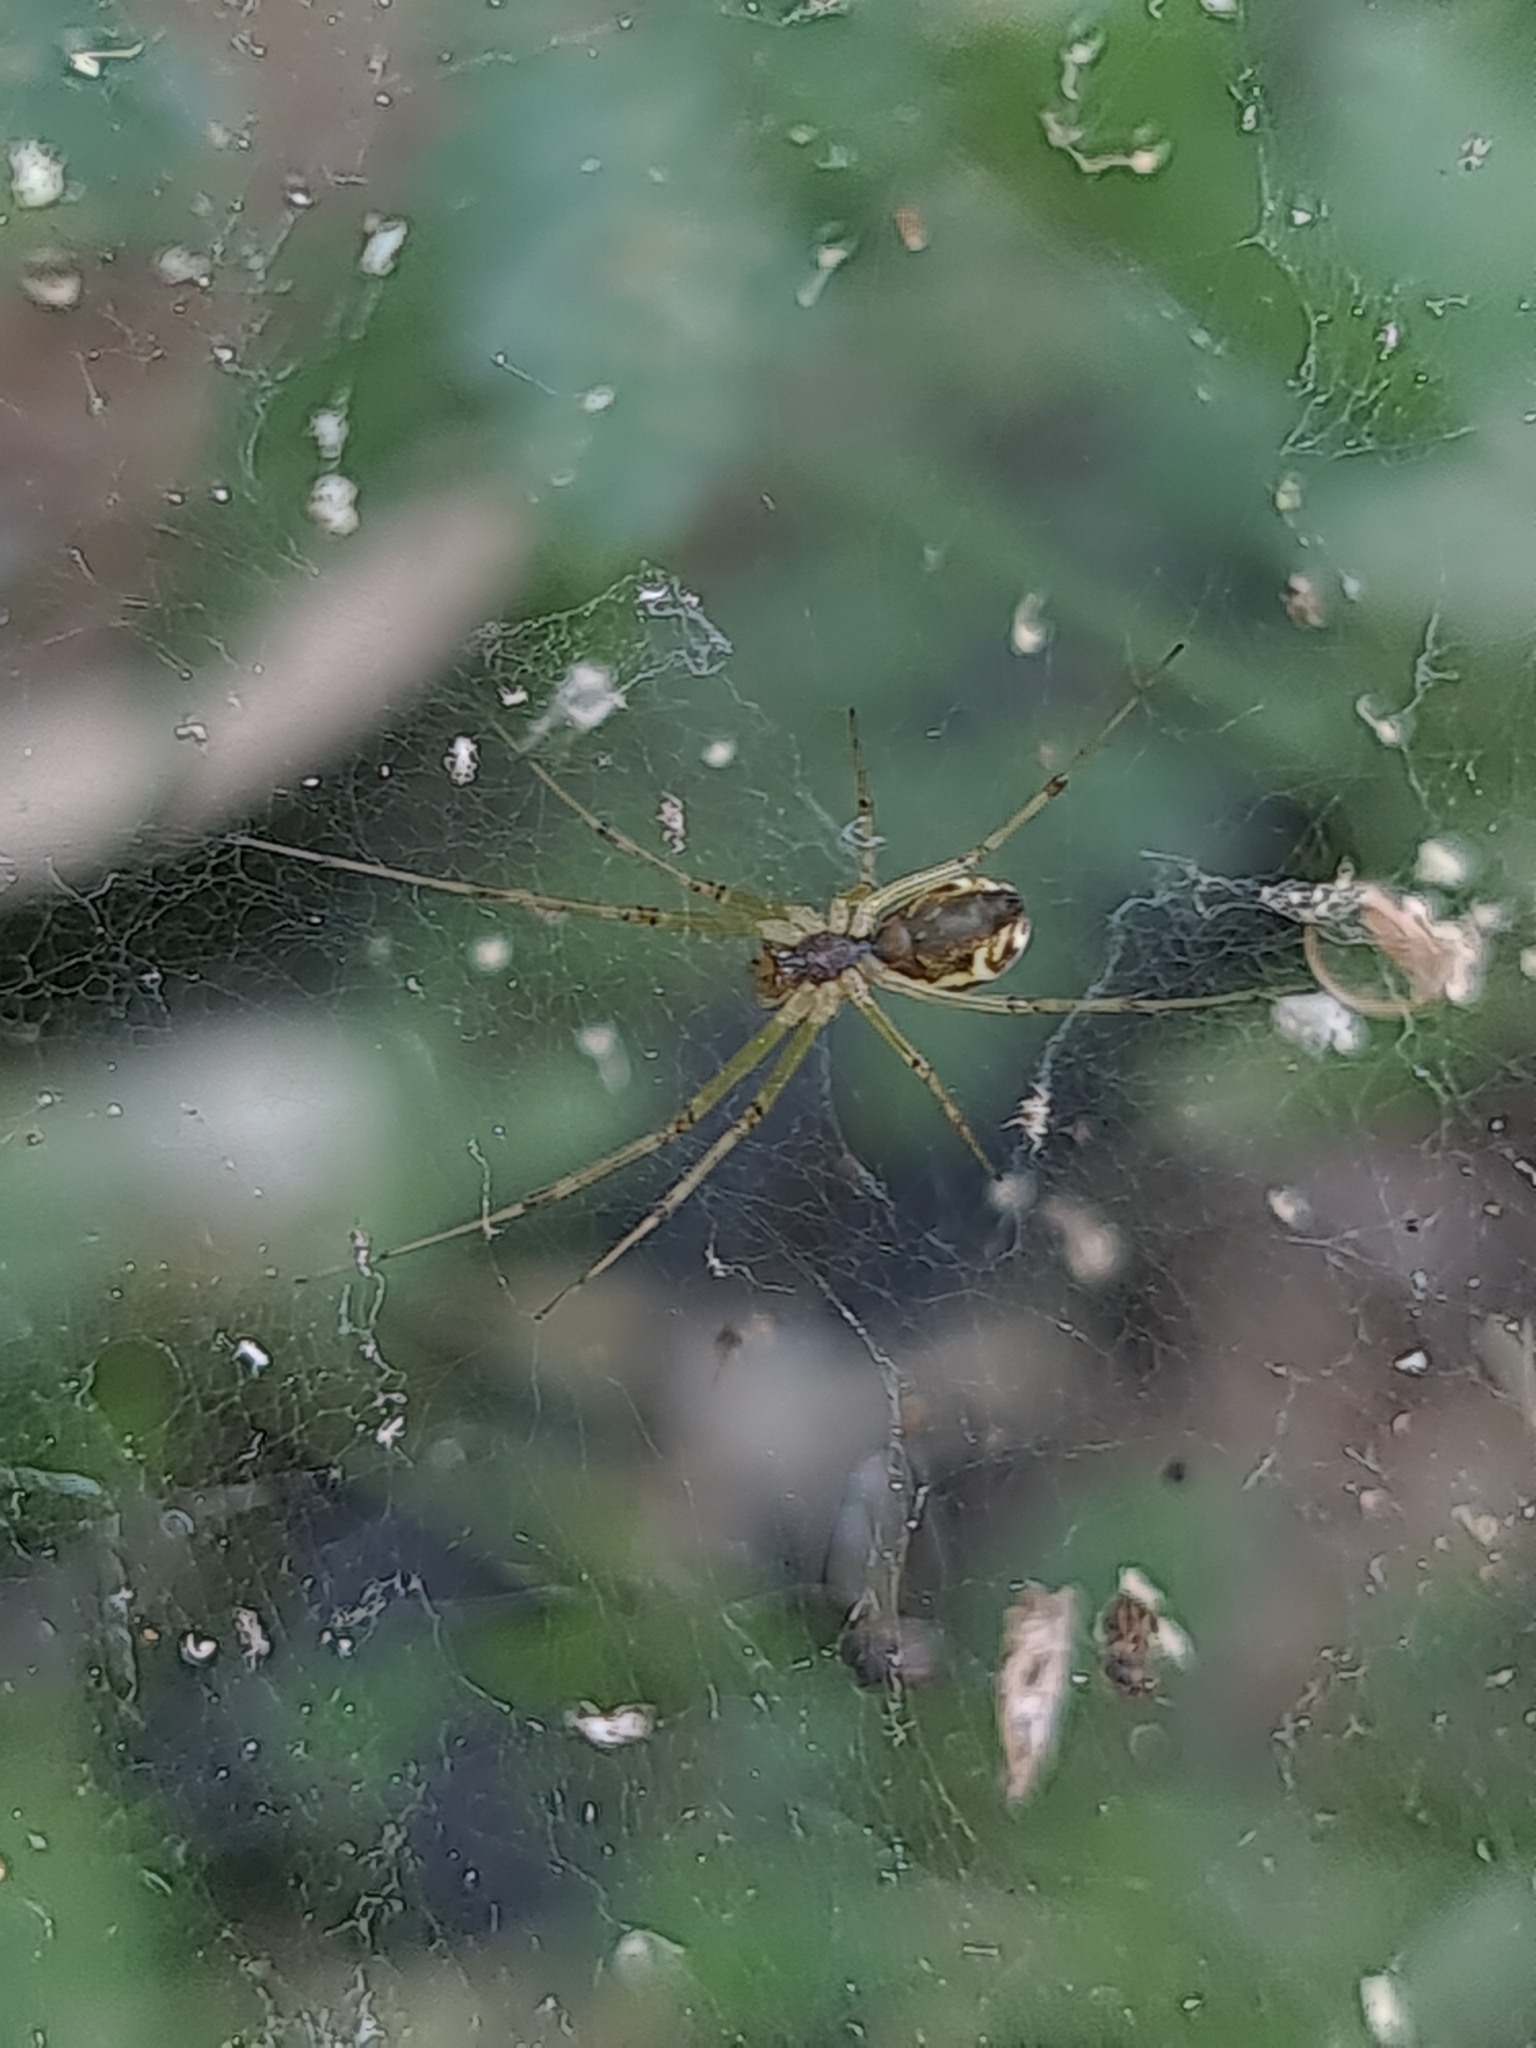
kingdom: Animalia
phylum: Arthropoda
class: Arachnida
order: Araneae
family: Linyphiidae
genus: Linyphia
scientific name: Linyphia triangularis
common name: Money spider
